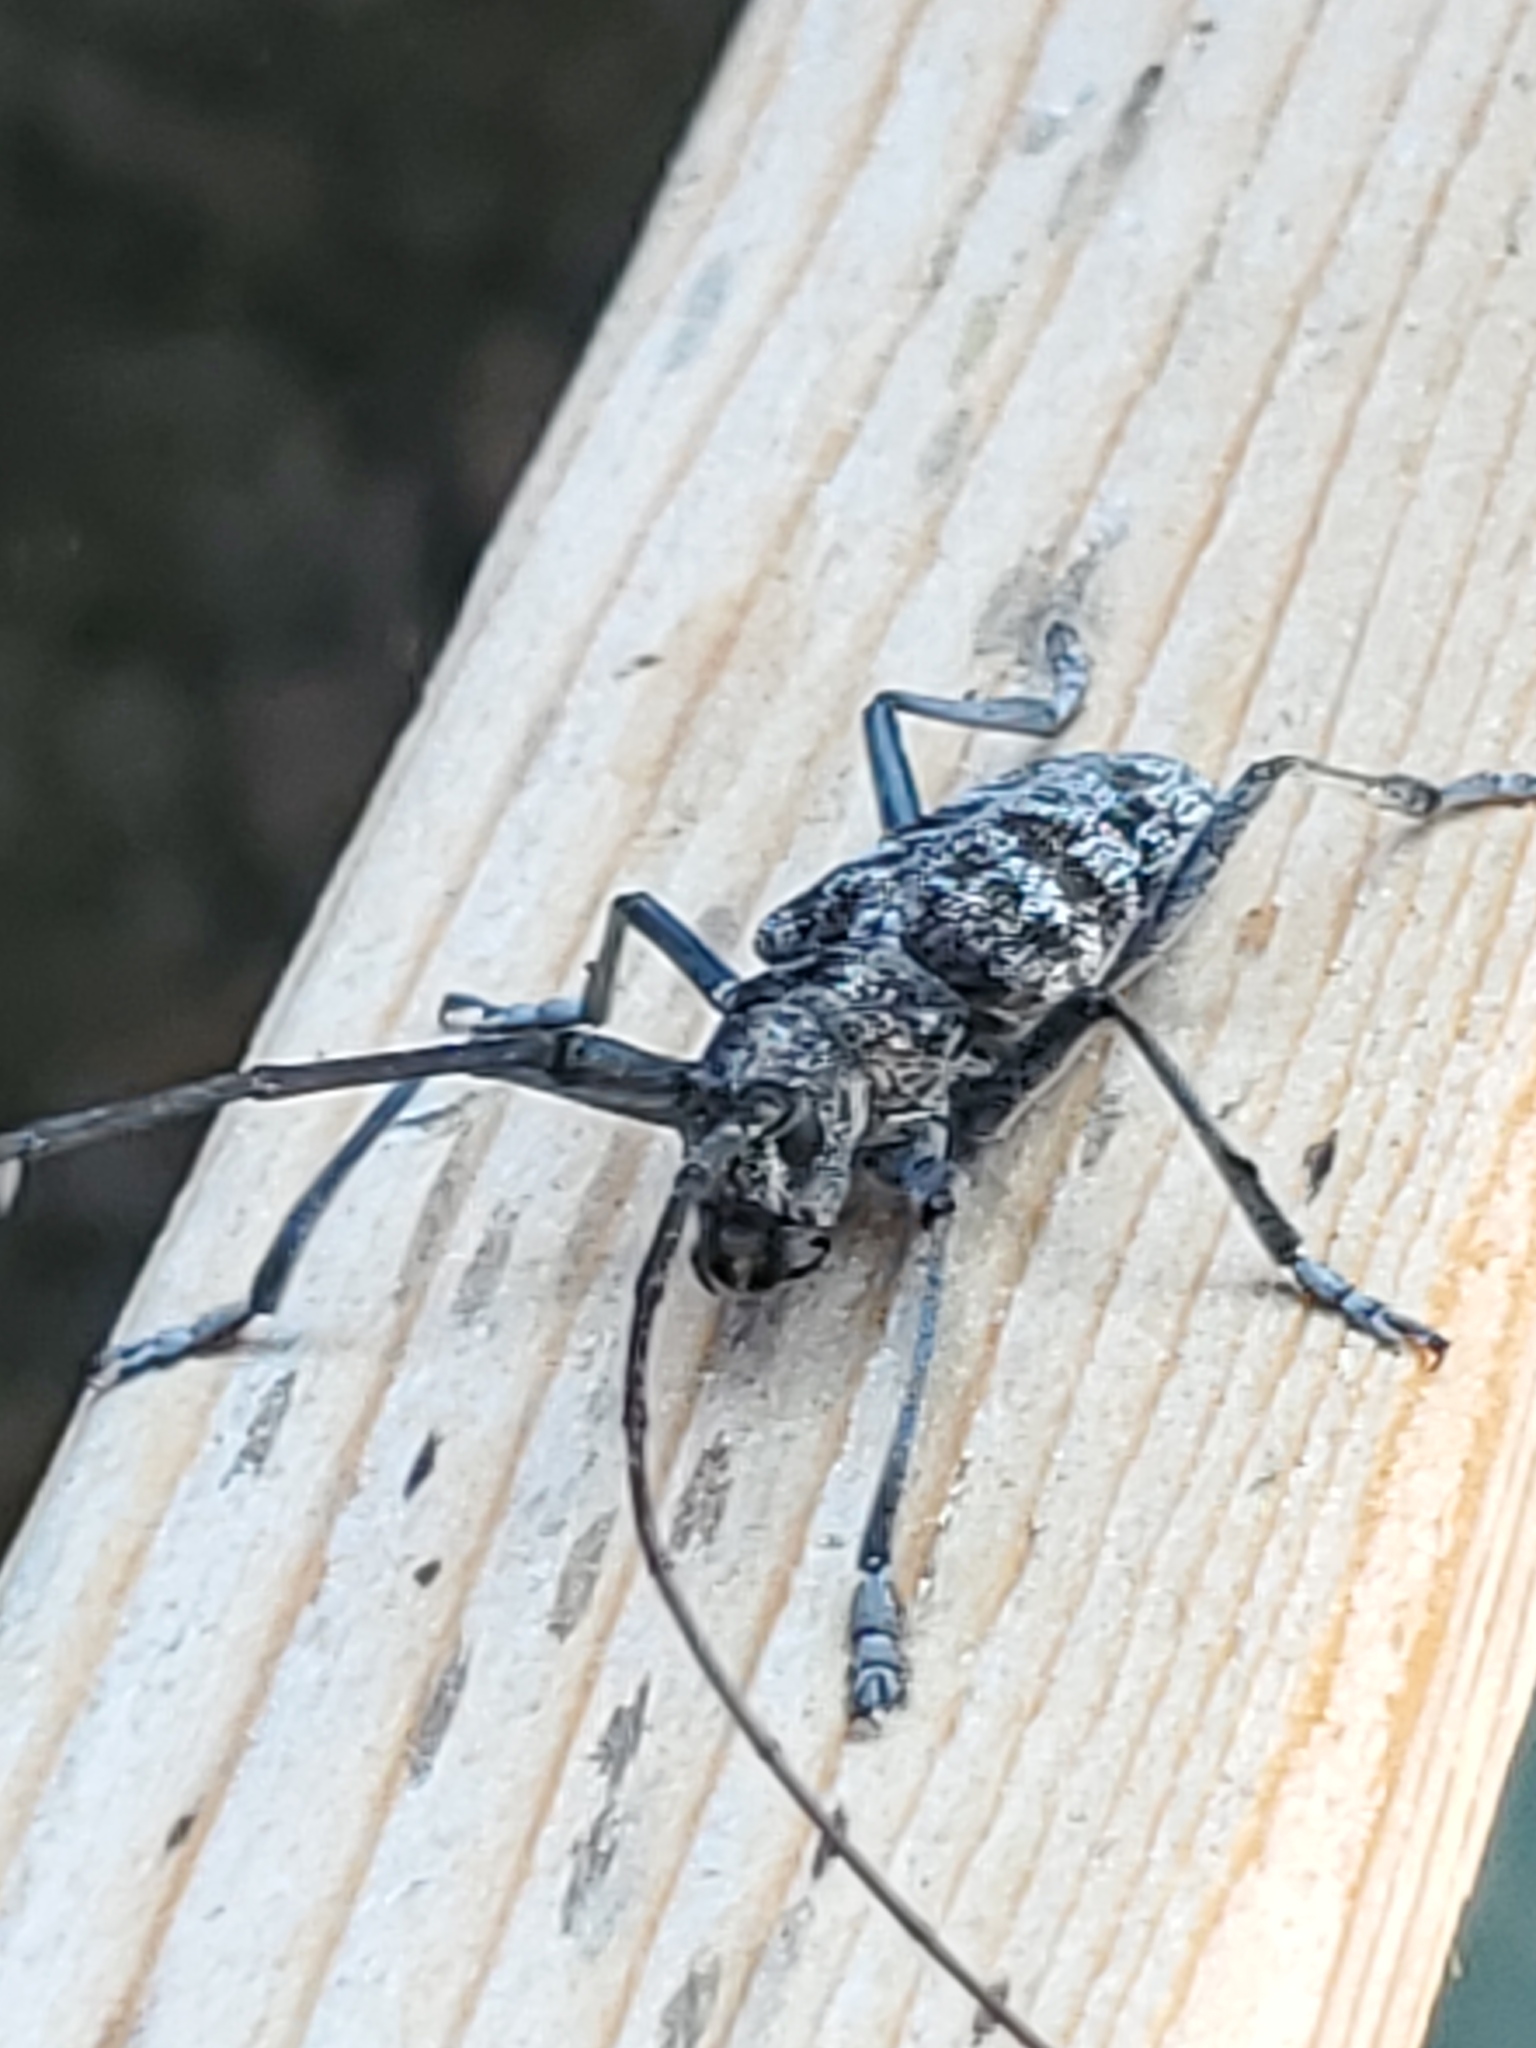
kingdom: Animalia
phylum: Arthropoda
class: Insecta
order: Coleoptera
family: Cerambycidae
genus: Monochamus
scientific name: Monochamus clamator
